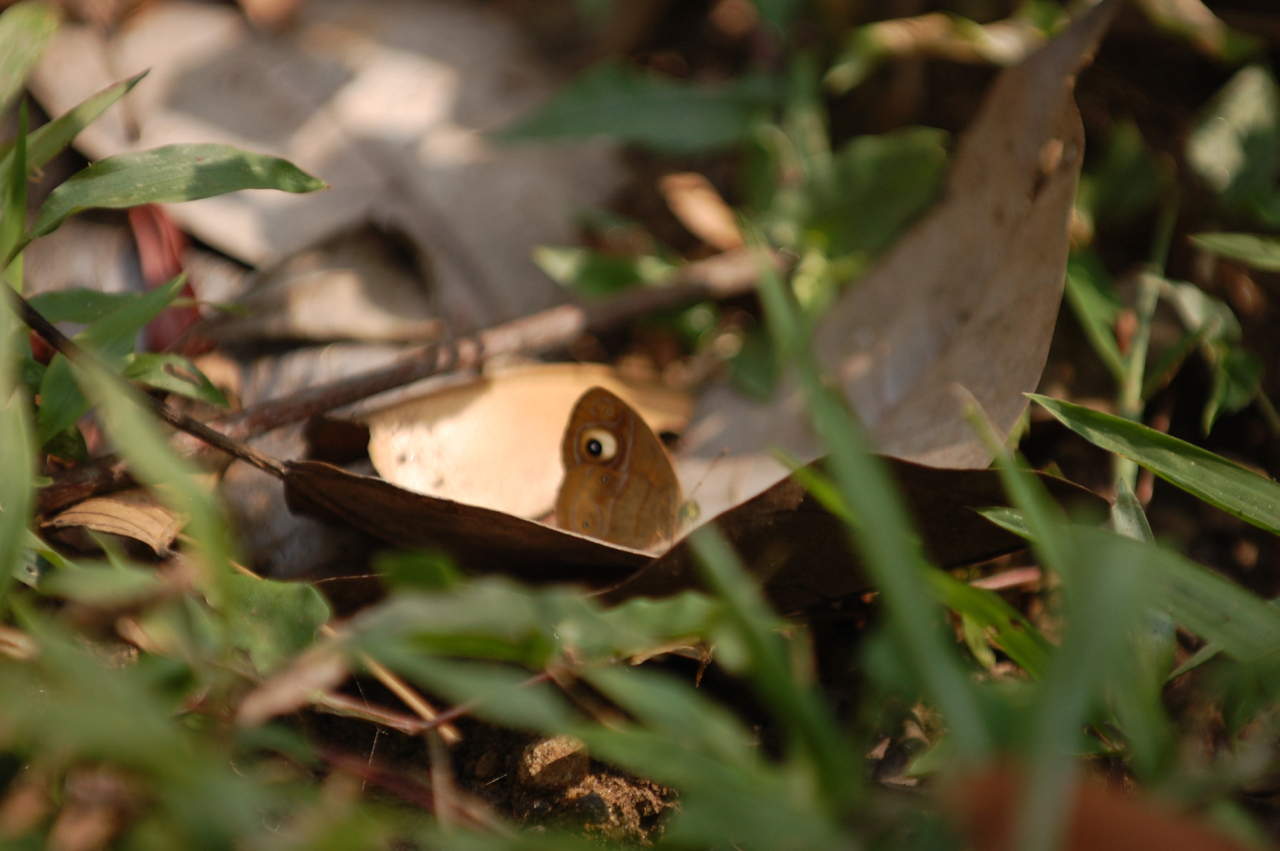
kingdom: Animalia
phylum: Arthropoda
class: Insecta
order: Lepidoptera
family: Nymphalidae
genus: Mycalesis
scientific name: Mycalesis patnia
